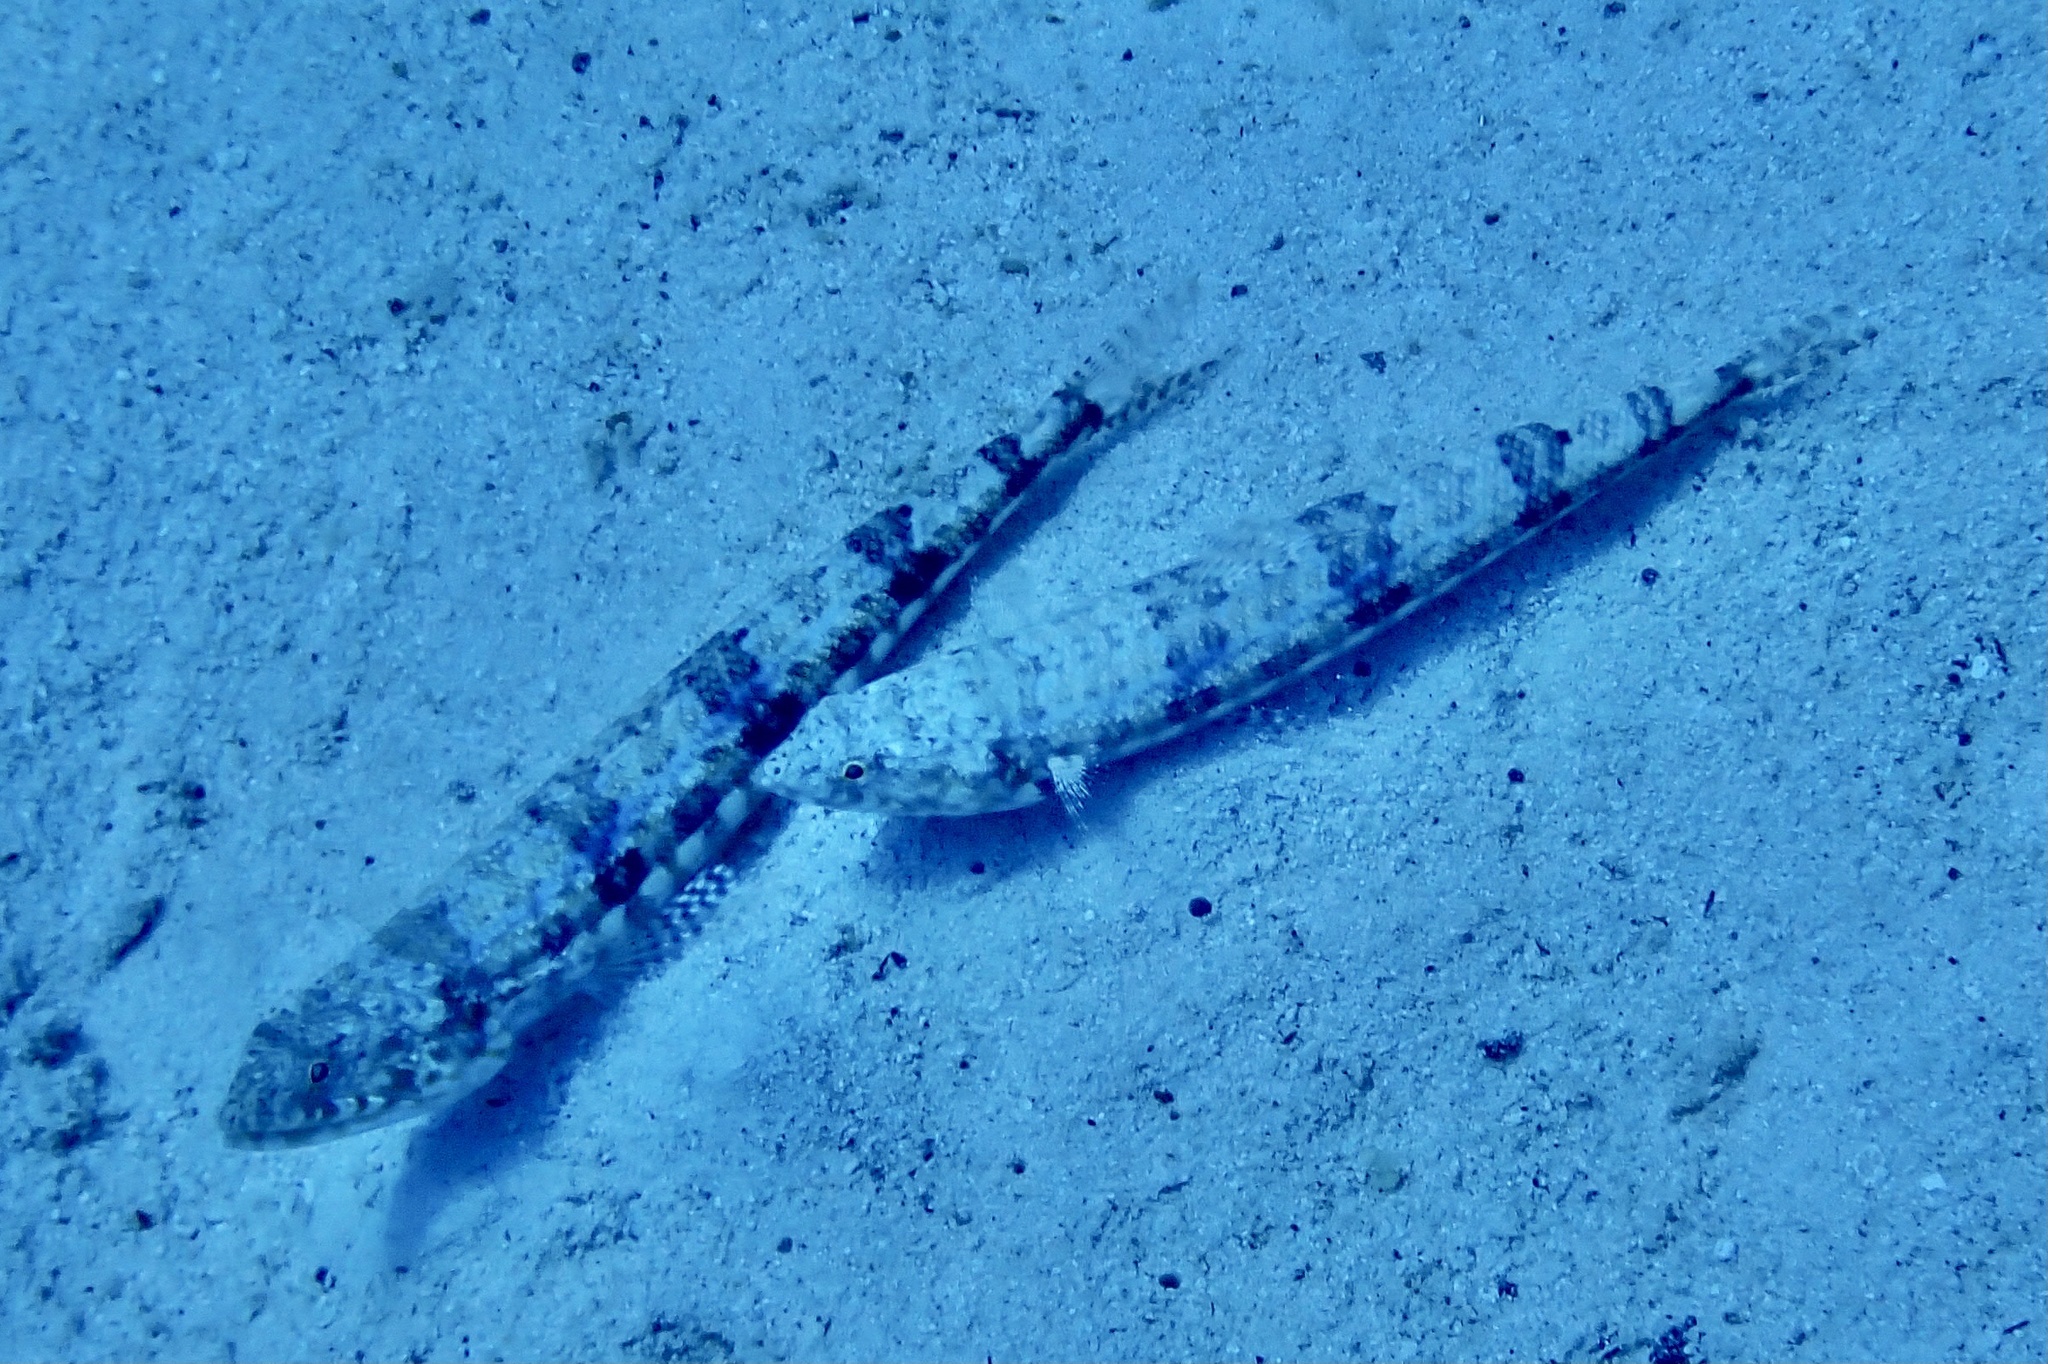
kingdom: Animalia
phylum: Chordata
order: Aulopiformes
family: Synodontidae
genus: Synodus
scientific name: Synodus variegatus
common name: Variegated lizardfish
